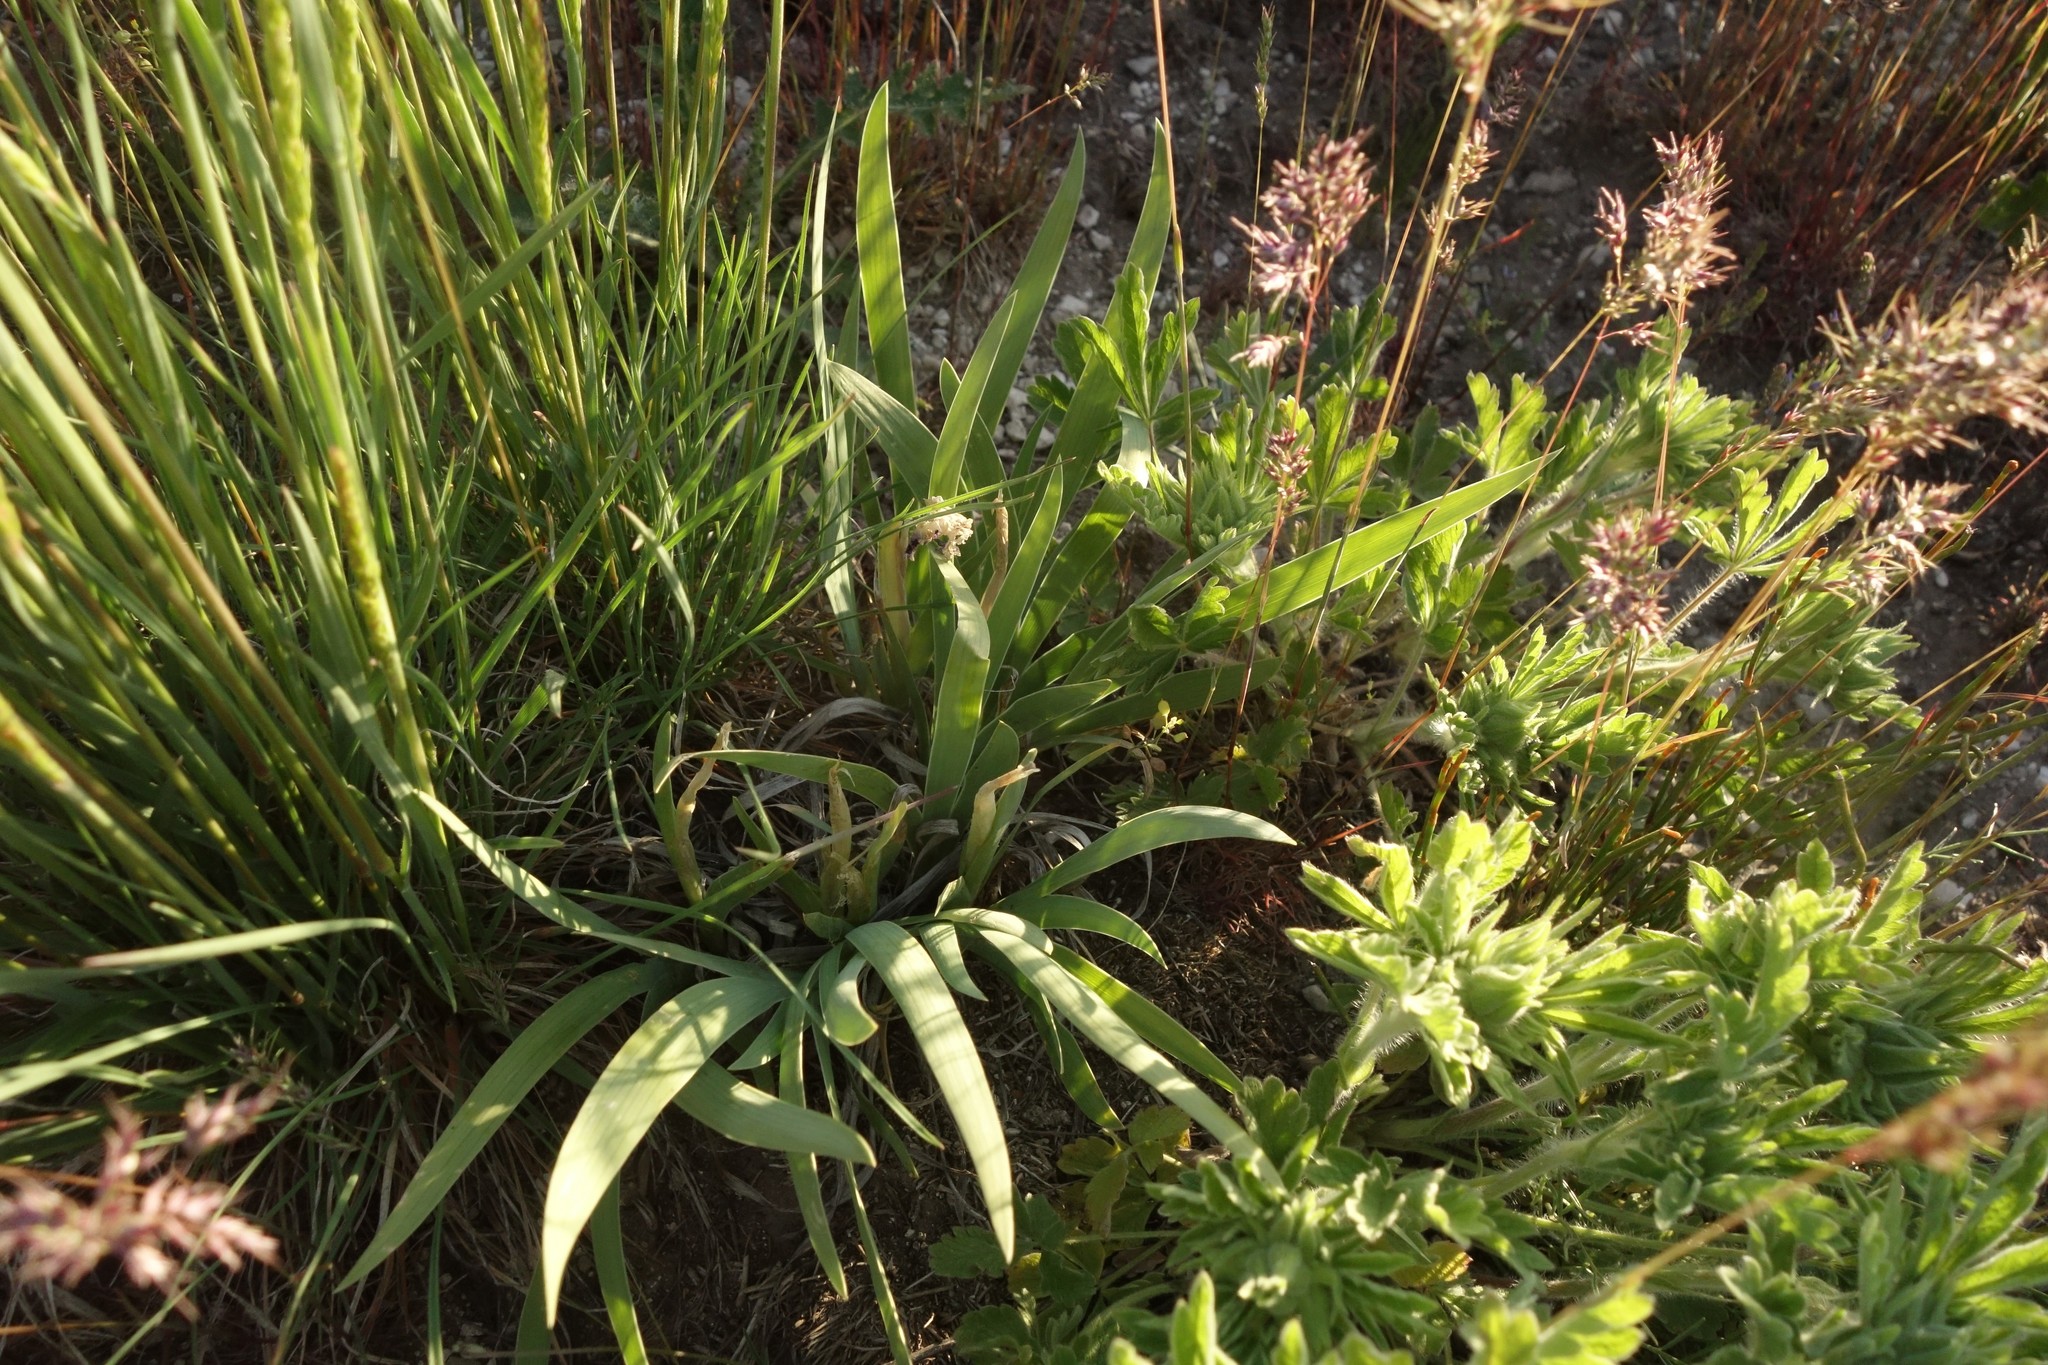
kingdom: Plantae
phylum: Tracheophyta
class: Liliopsida
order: Asparagales
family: Iridaceae
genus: Iris
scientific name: Iris pumila
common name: Dwarf iris
